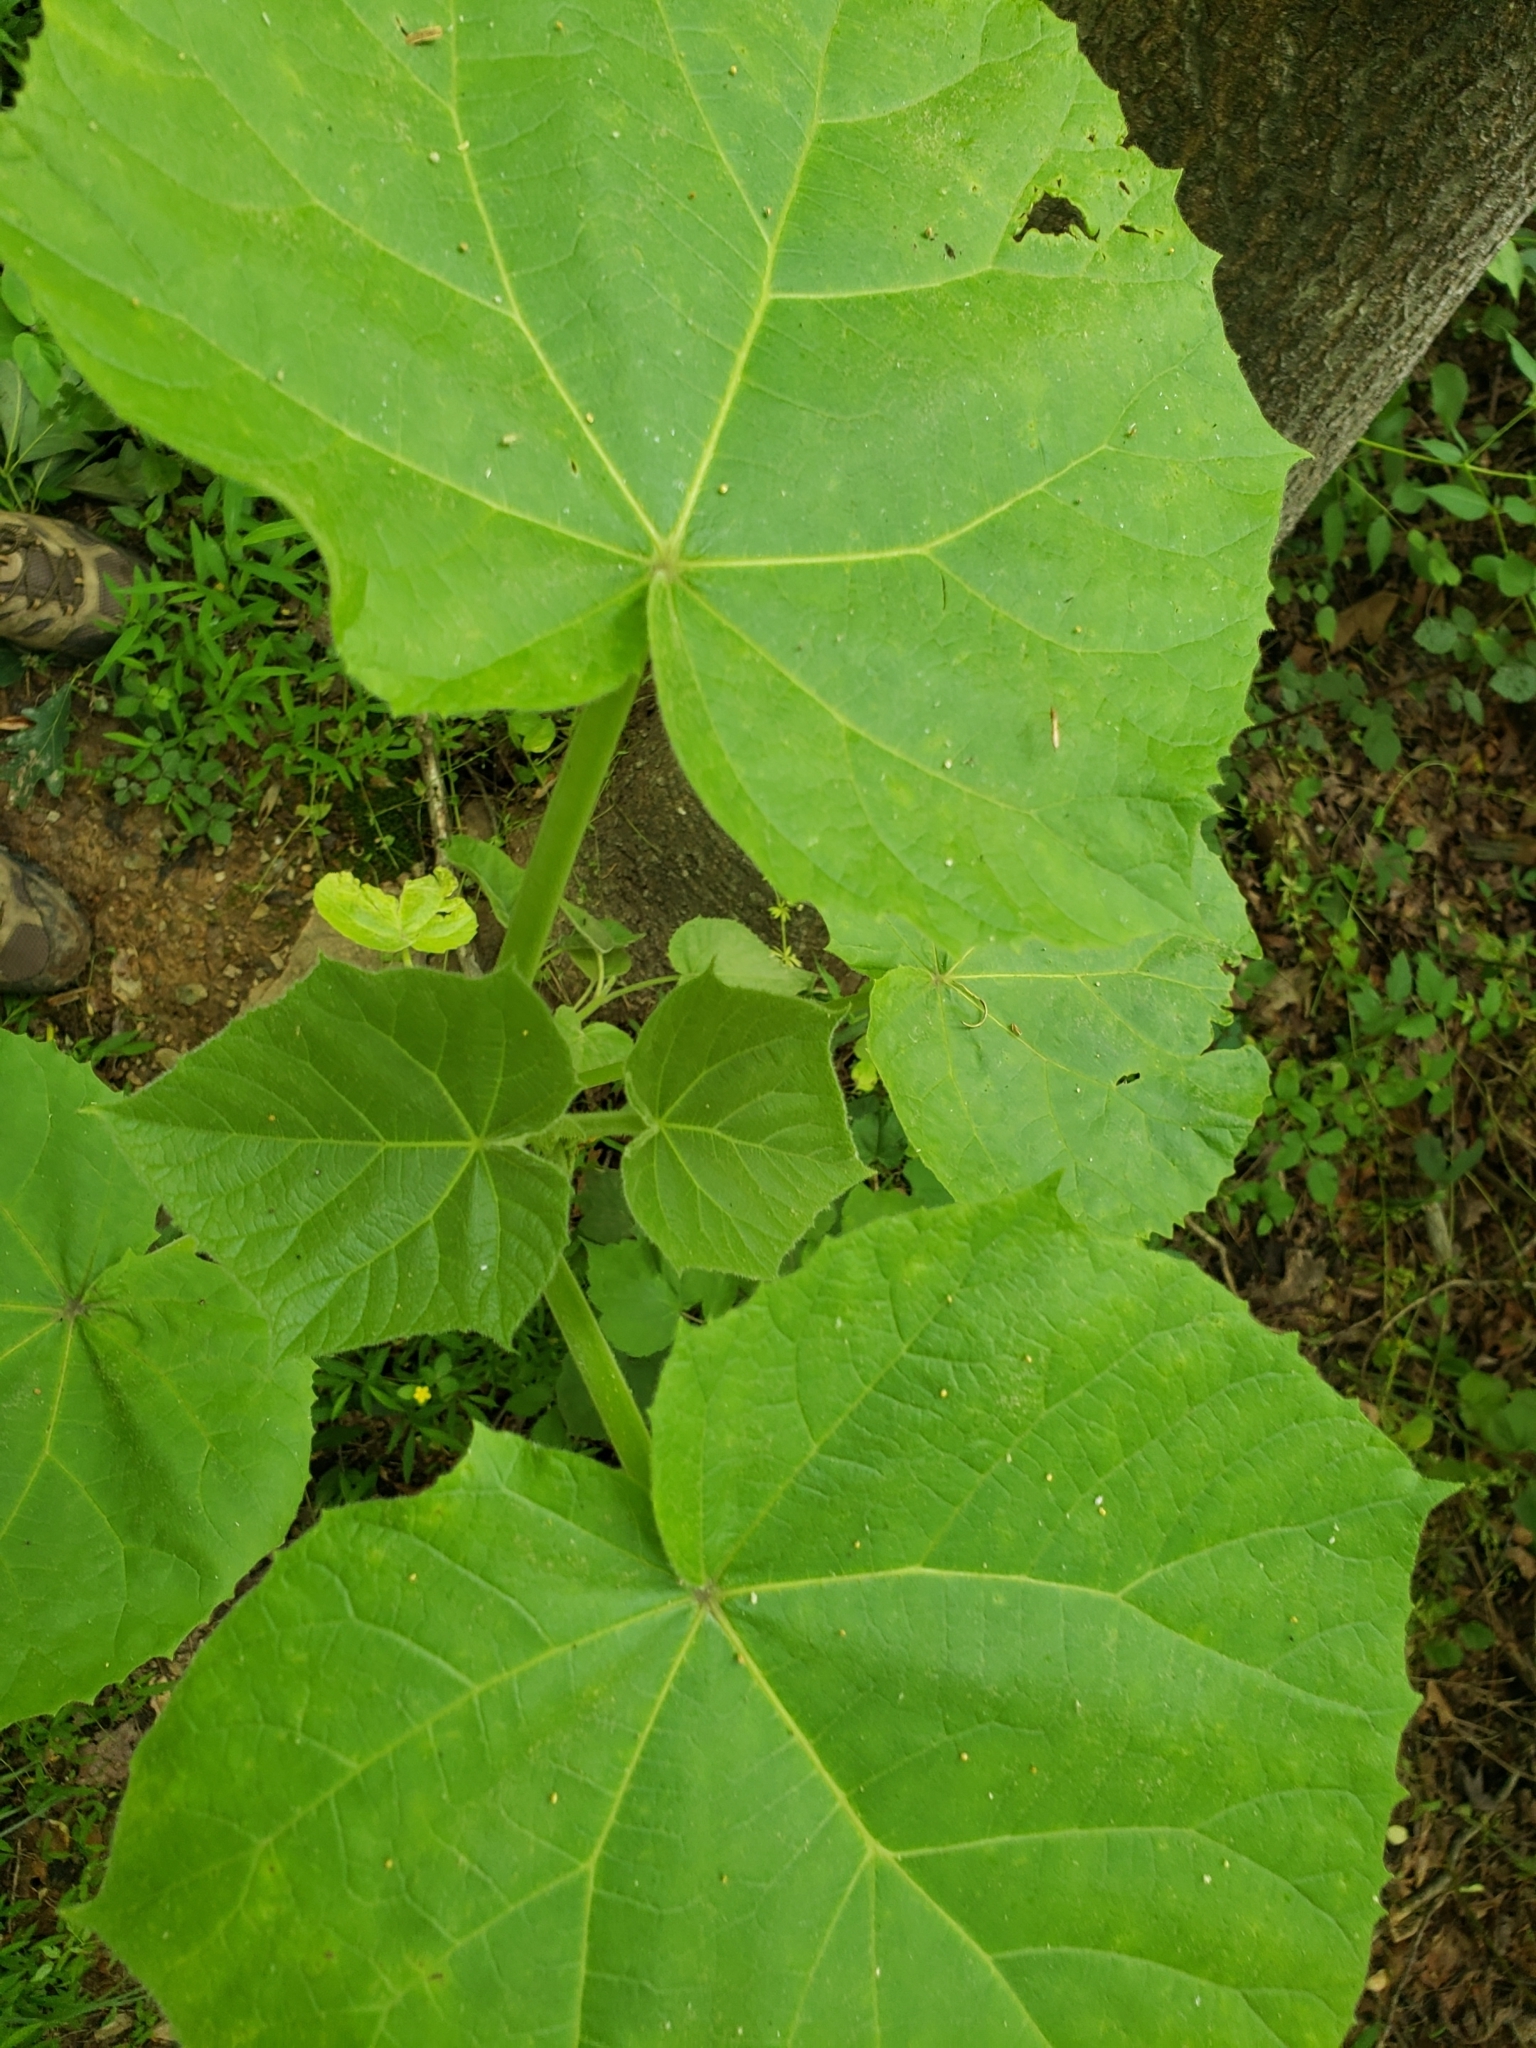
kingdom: Plantae
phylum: Tracheophyta
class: Magnoliopsida
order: Lamiales
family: Paulowniaceae
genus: Paulownia
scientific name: Paulownia tomentosa
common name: Foxglove-tree
